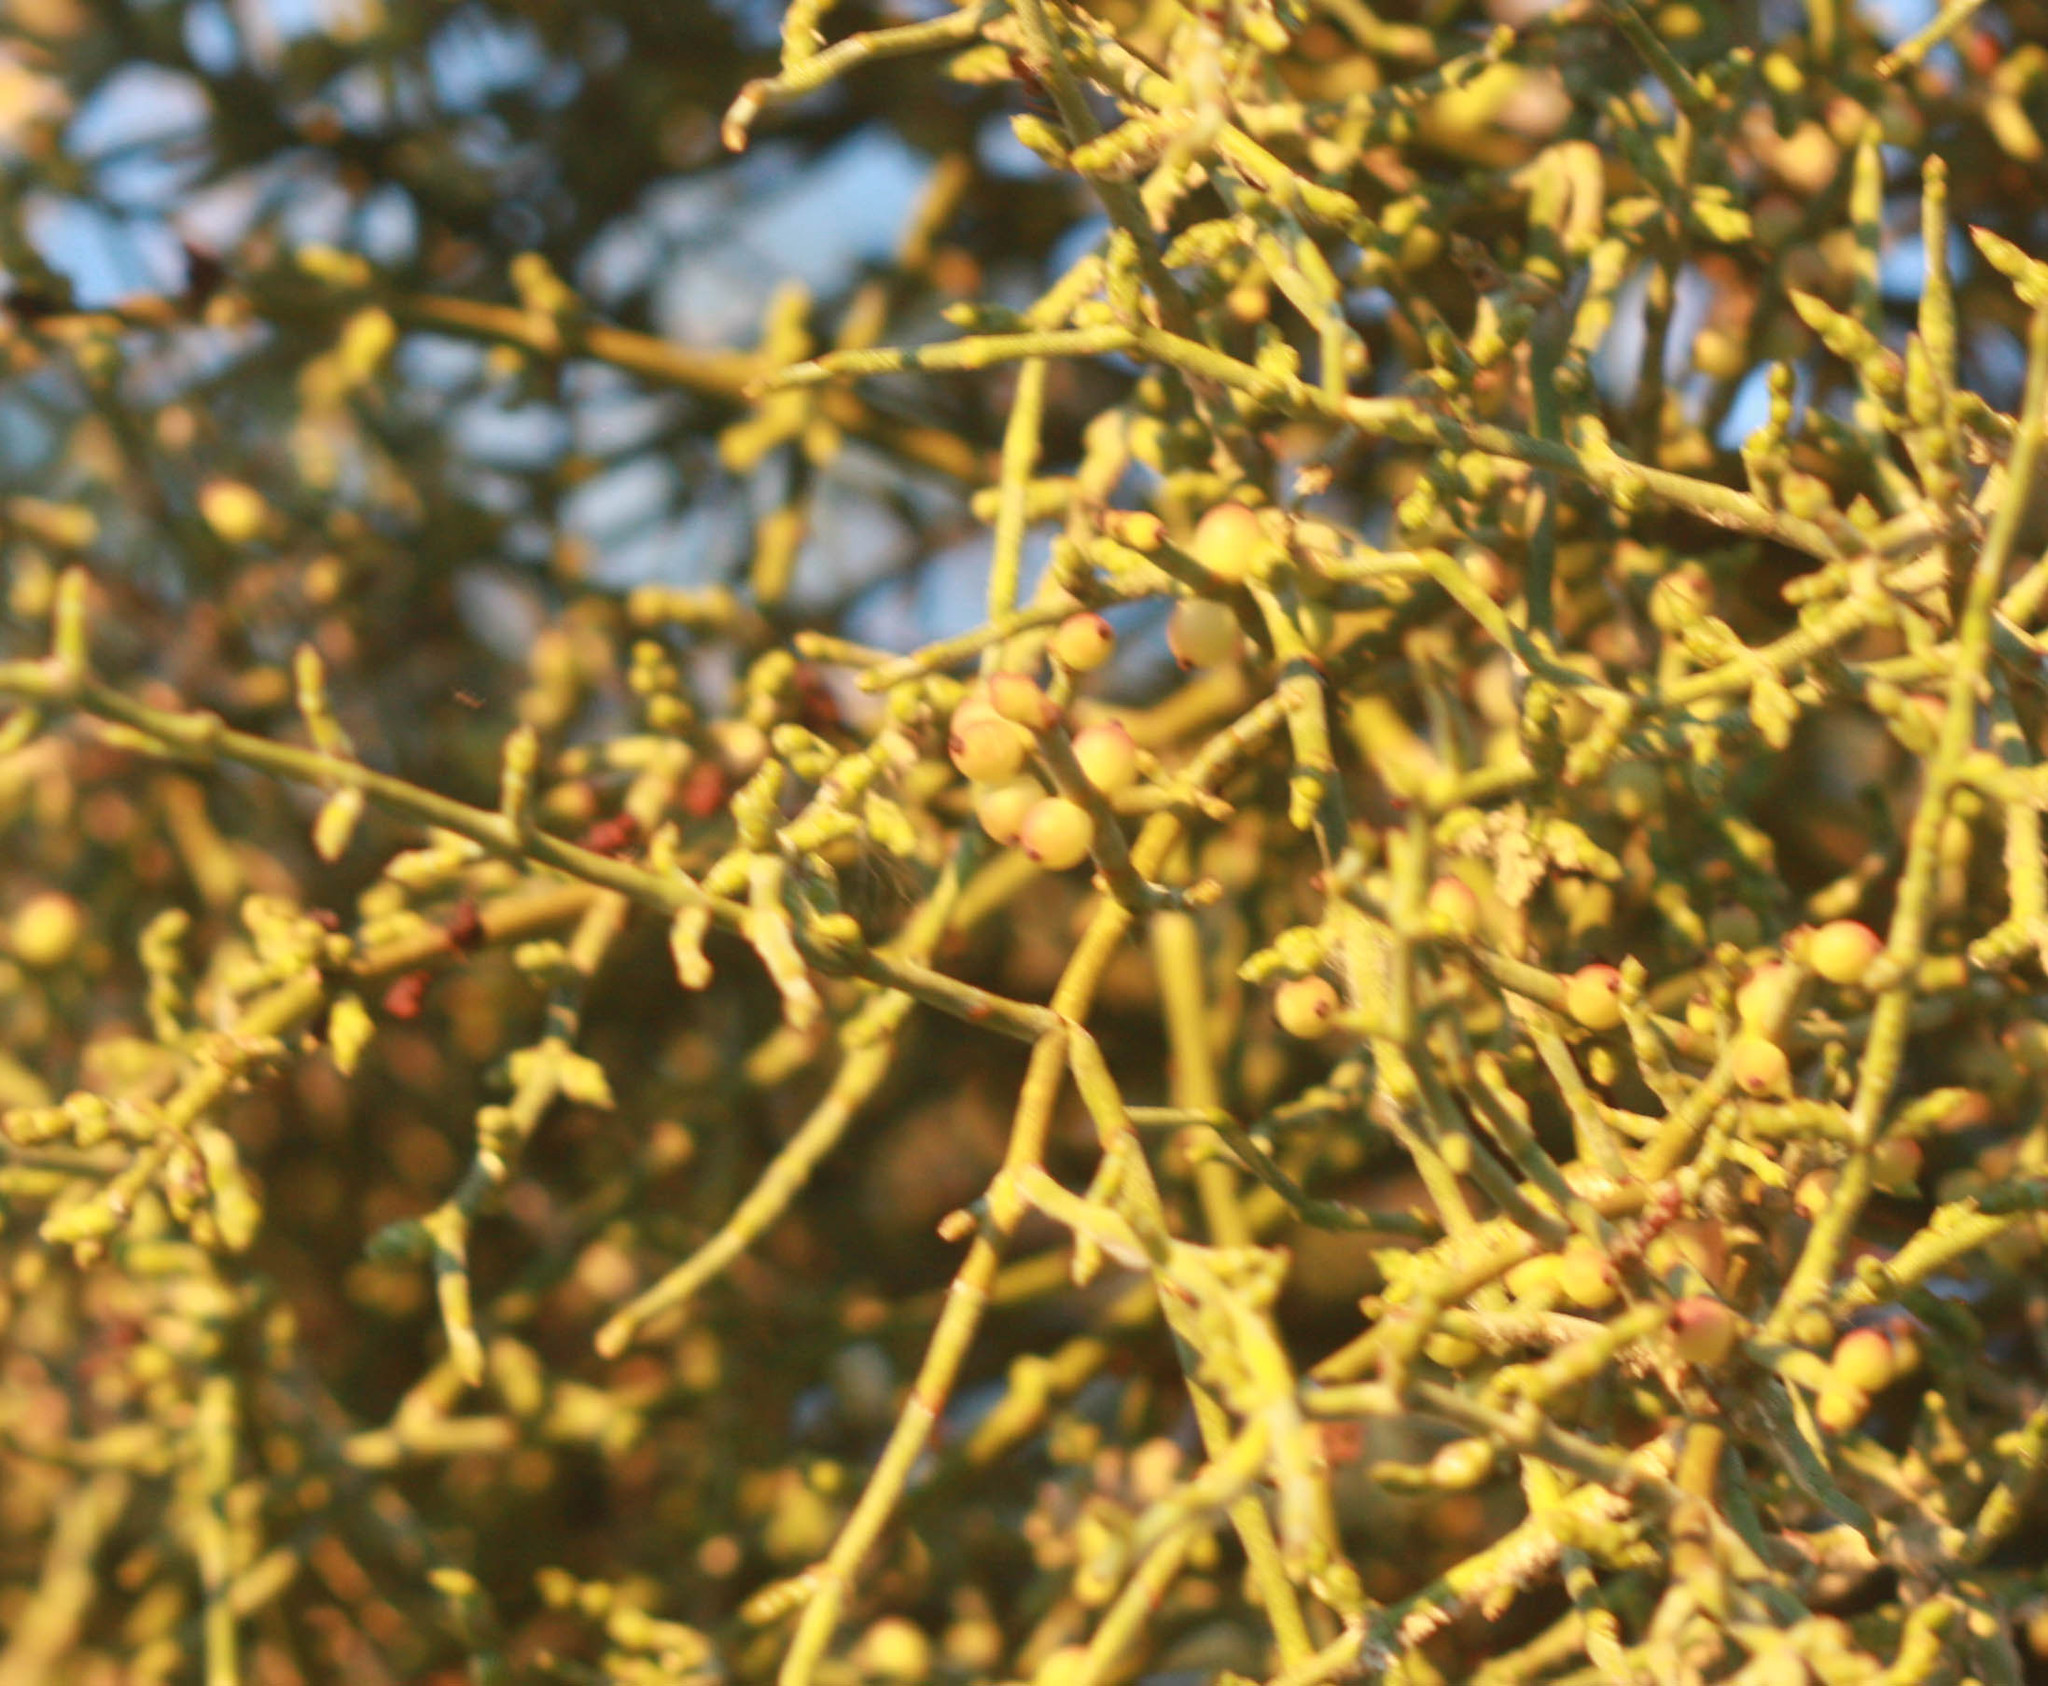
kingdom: Plantae
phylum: Tracheophyta
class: Magnoliopsida
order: Santalales
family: Viscaceae
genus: Phoradendron
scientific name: Phoradendron californicum
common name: Acacia mistletoe
